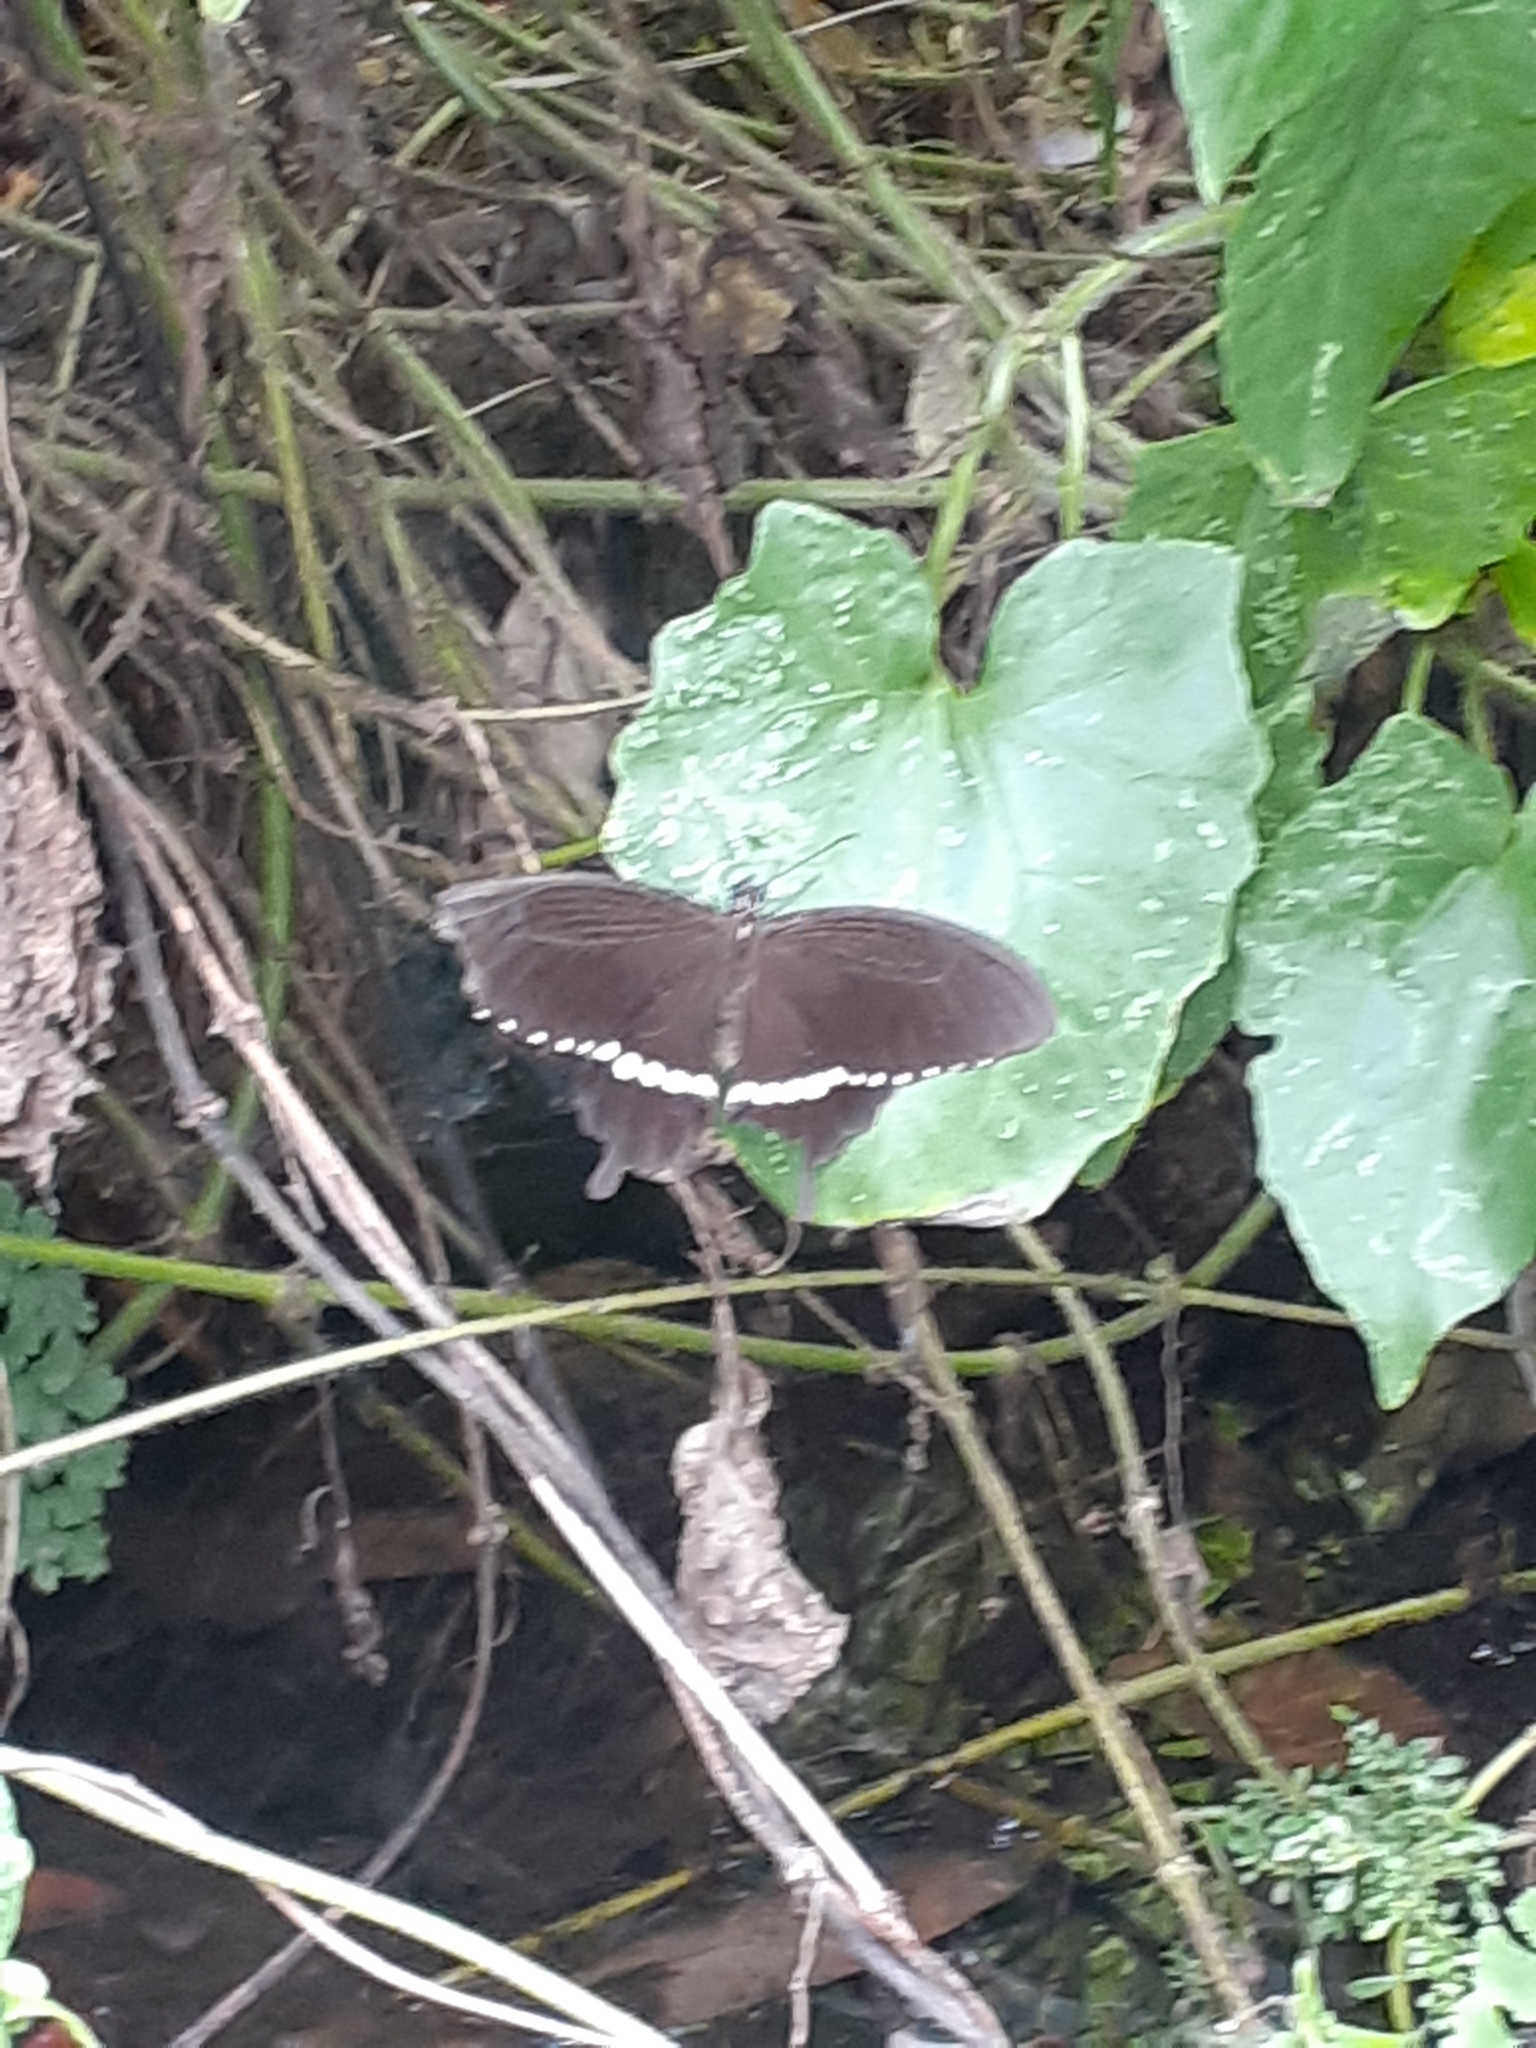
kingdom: Animalia
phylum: Arthropoda
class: Insecta
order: Lepidoptera
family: Papilionidae
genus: Papilio
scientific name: Papilio polytes
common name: Common mormon
